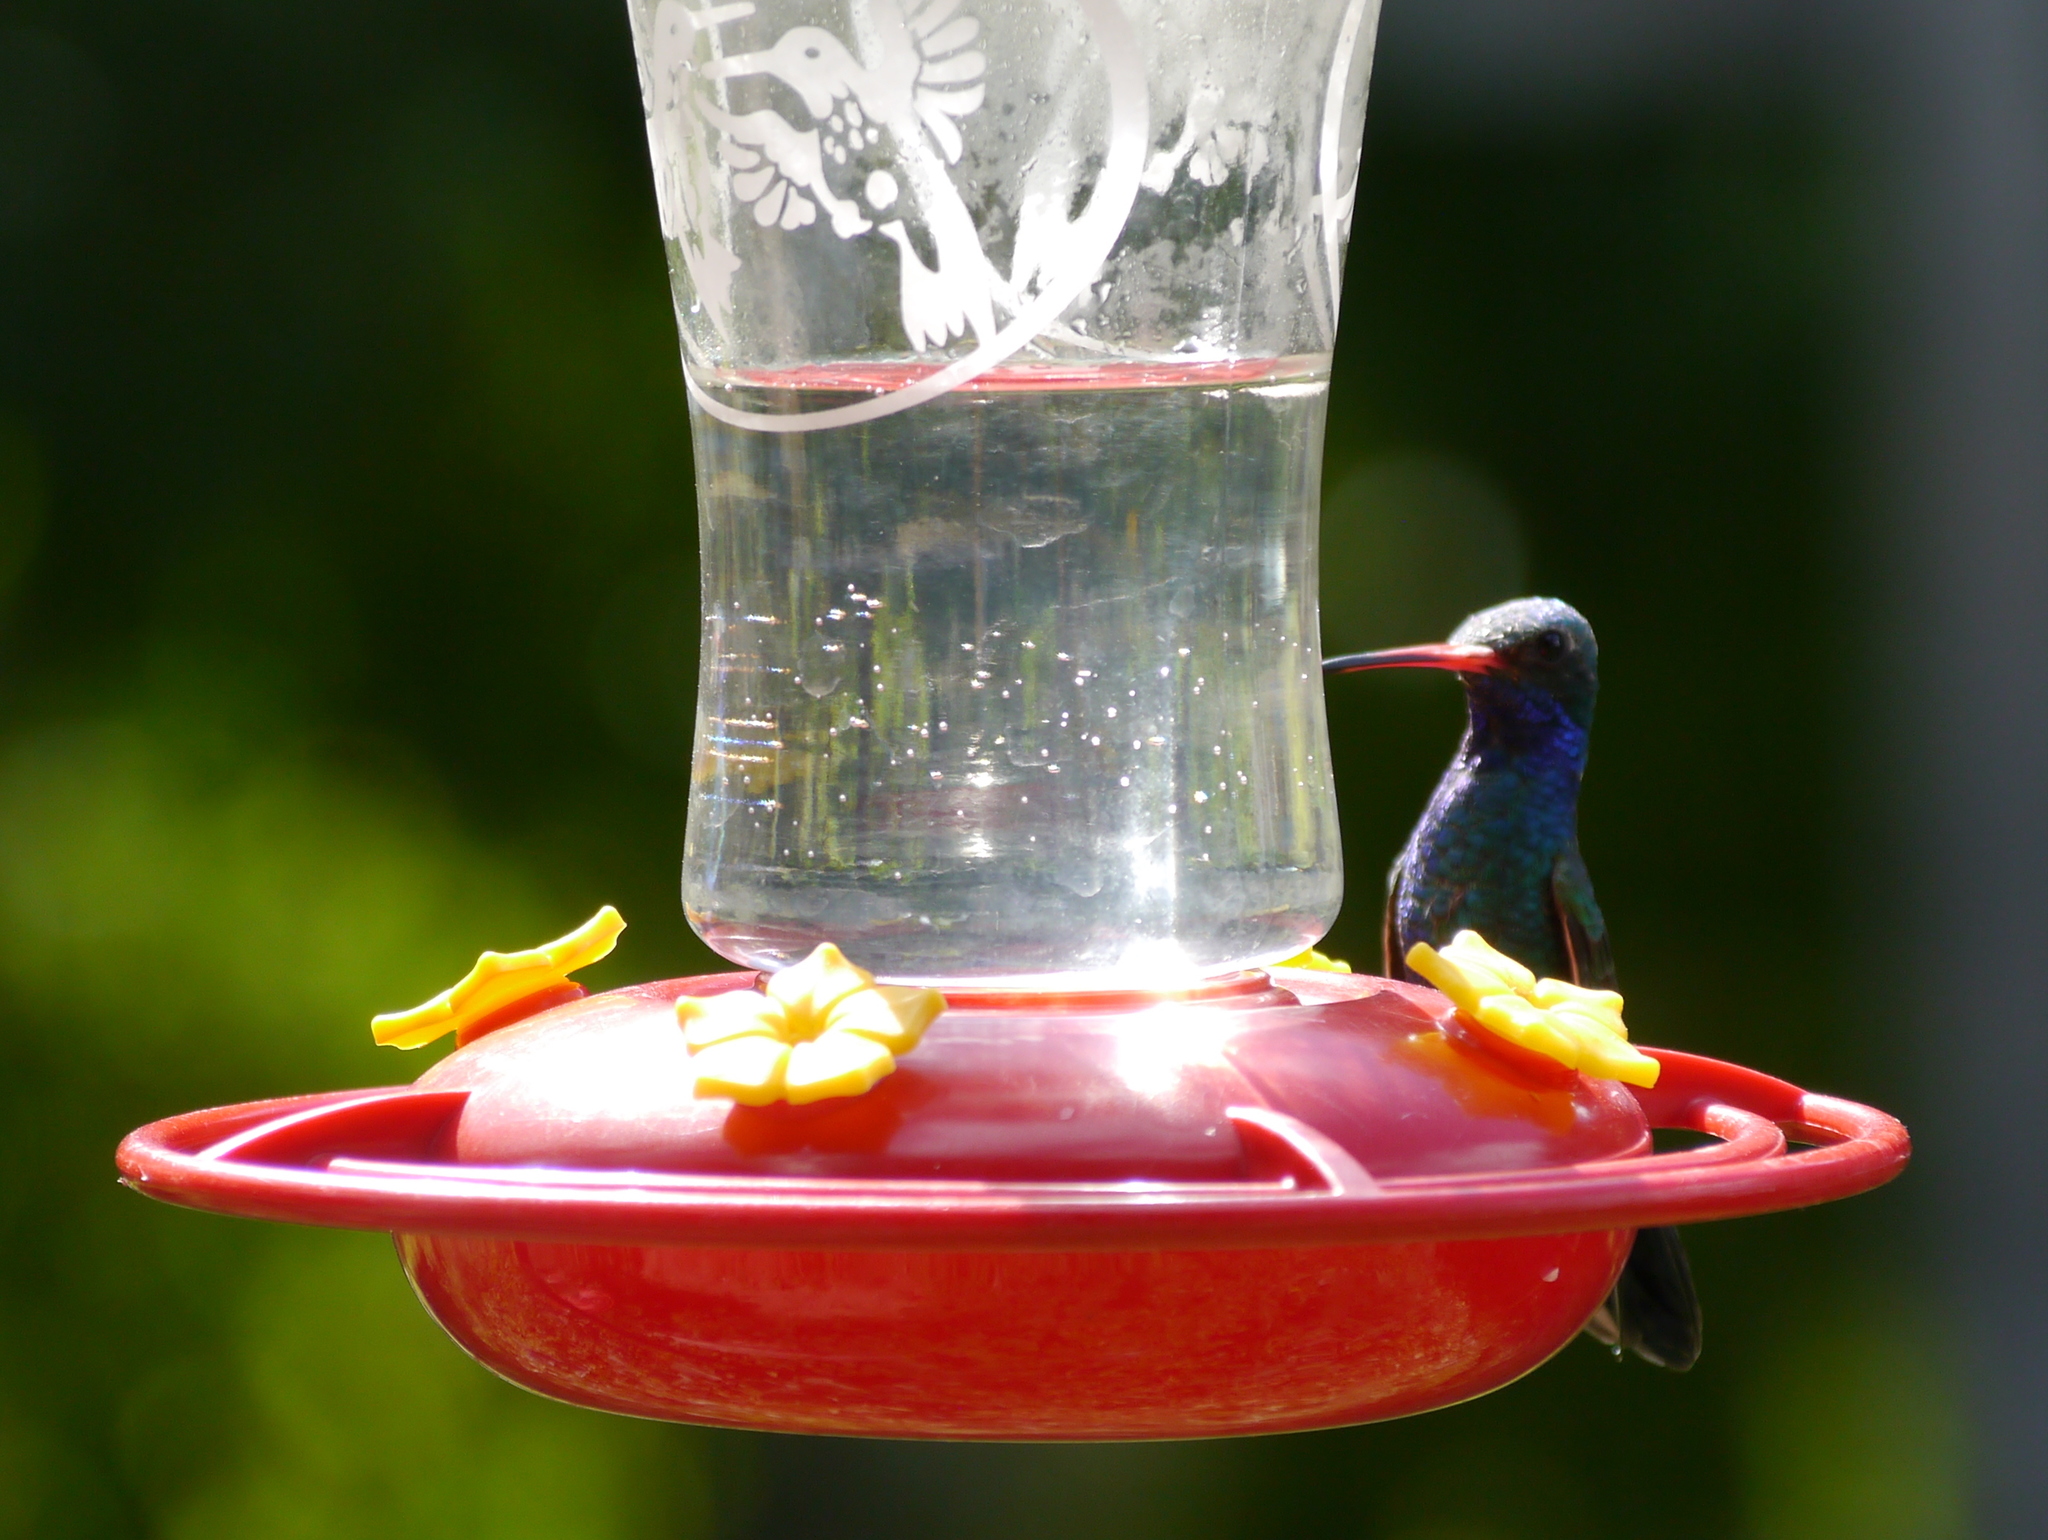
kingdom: Animalia
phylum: Chordata
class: Aves
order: Apodiformes
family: Trochilidae
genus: Cynanthus
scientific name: Cynanthus latirostris
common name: Broad-billed hummingbird
